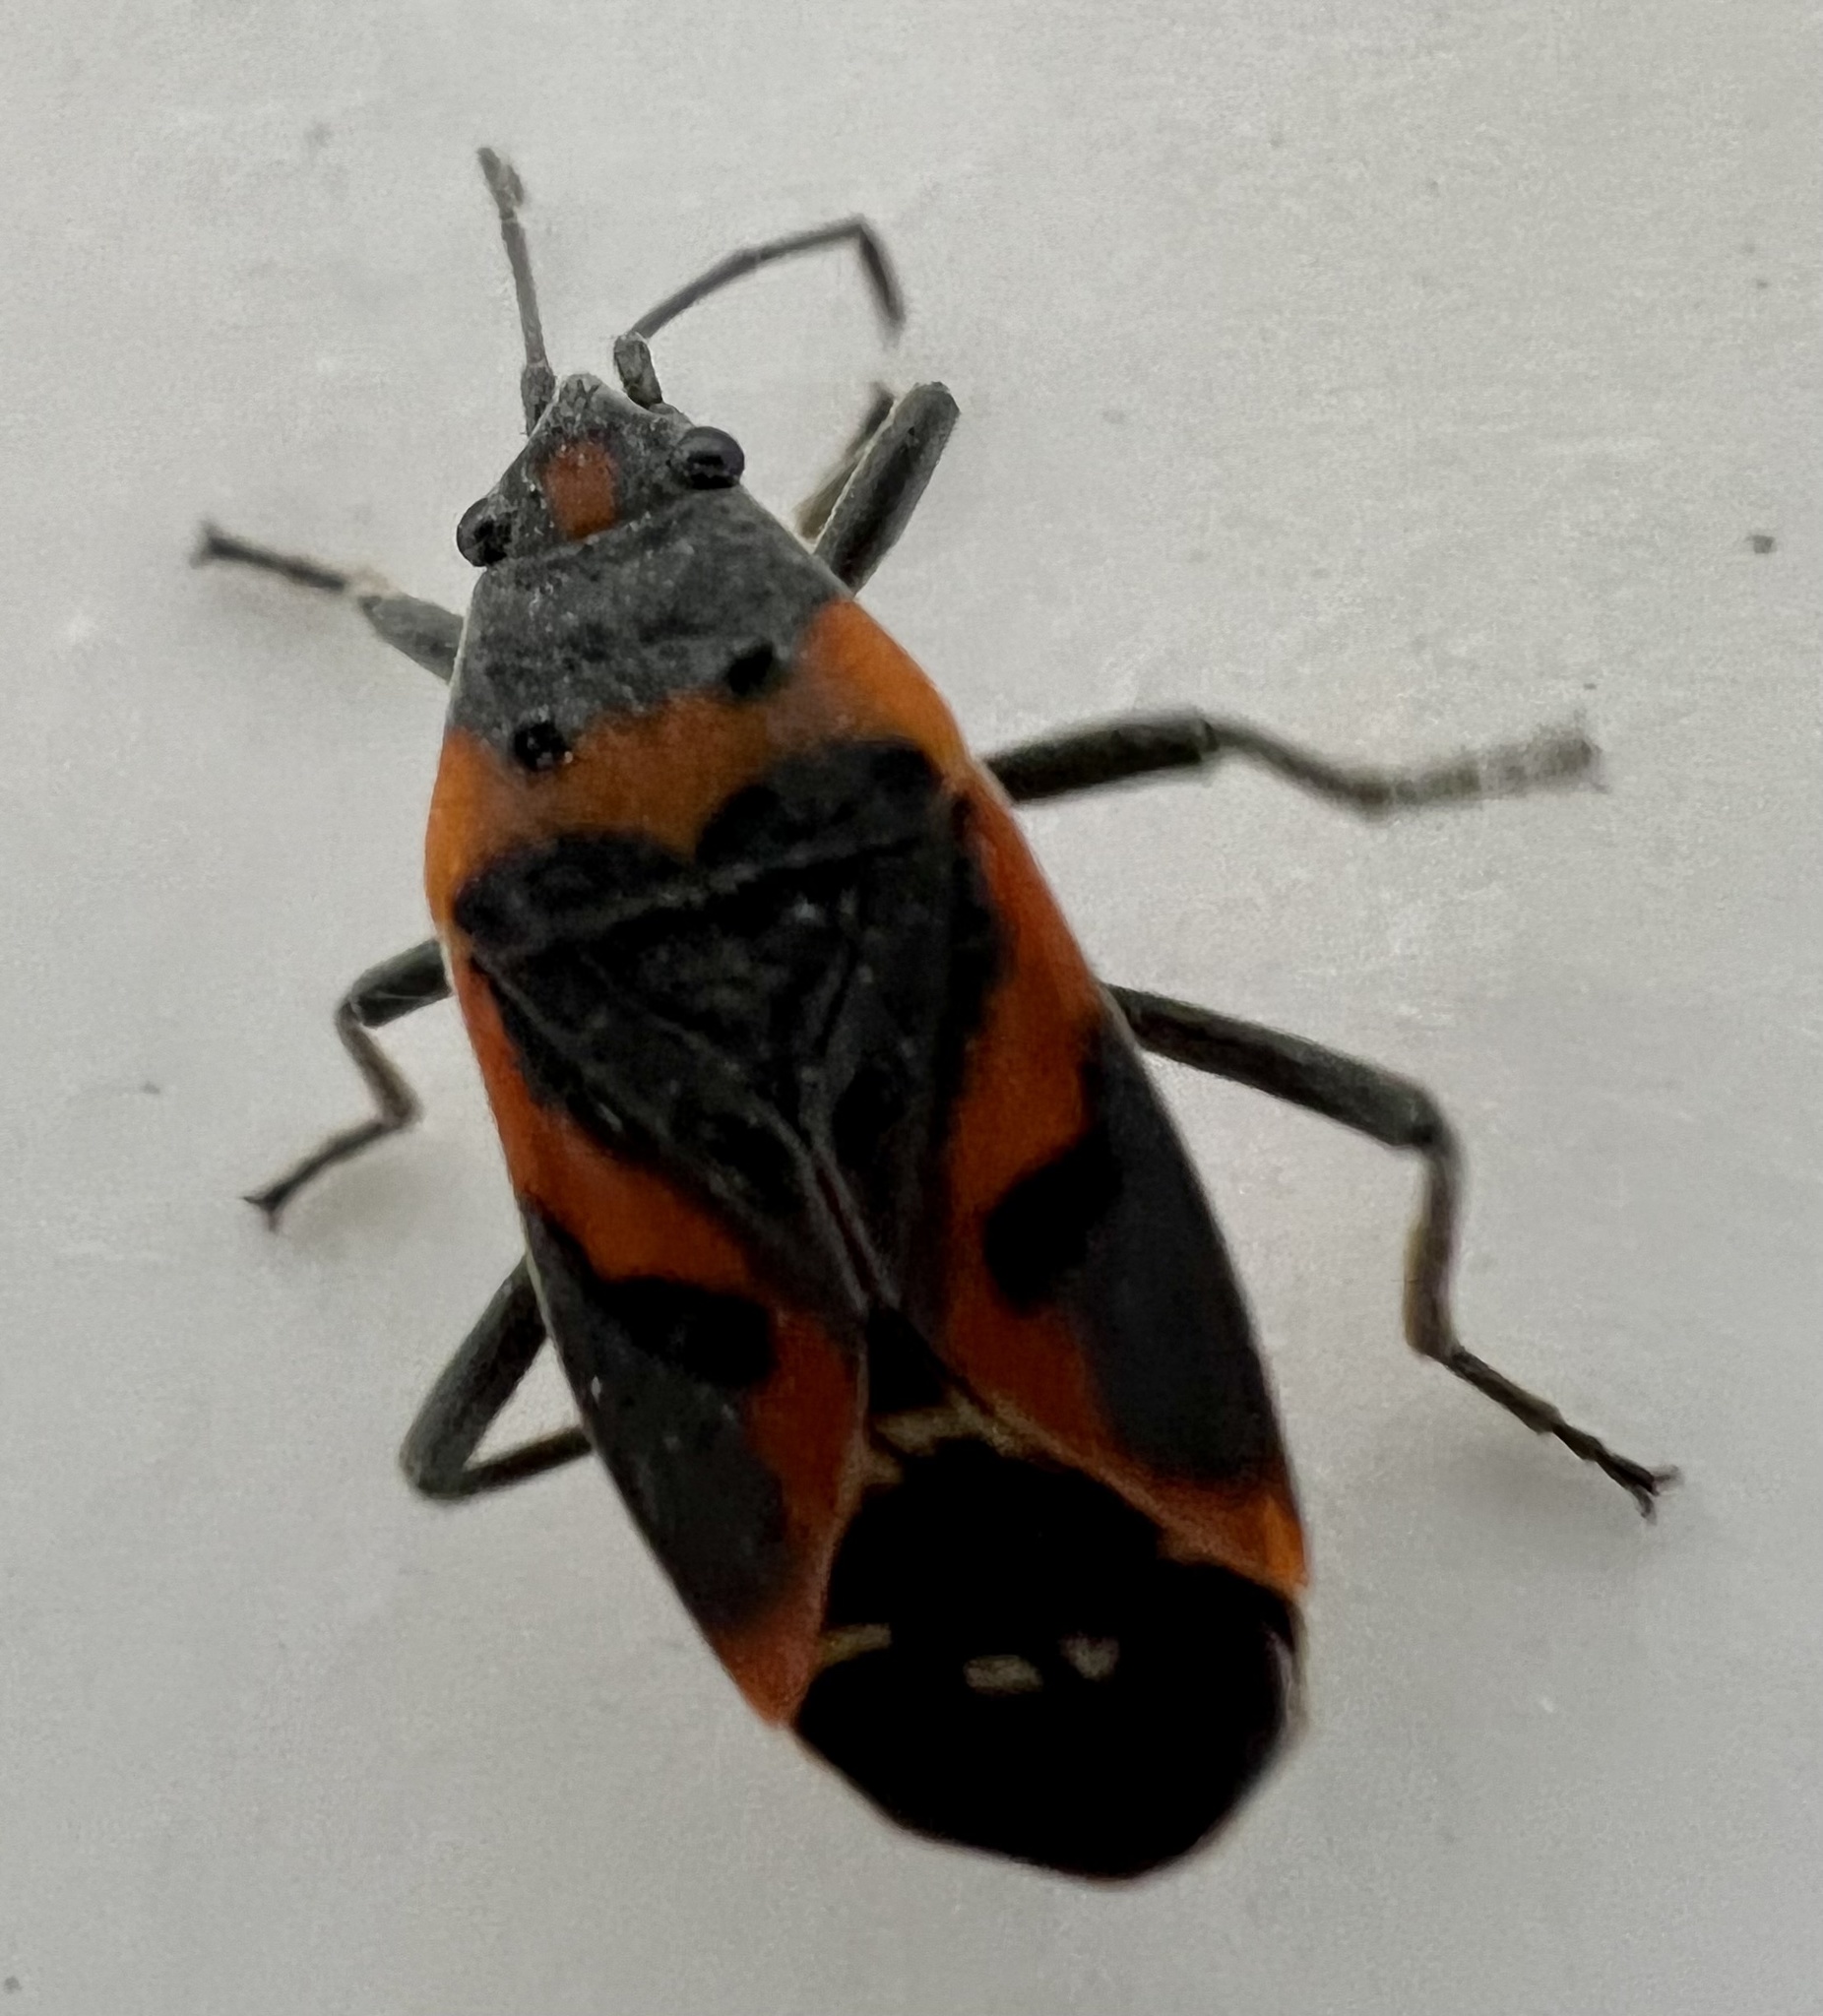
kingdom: Animalia
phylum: Arthropoda
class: Insecta
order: Hemiptera
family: Lygaeidae
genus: Lygaeus
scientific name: Lygaeus kalmii
